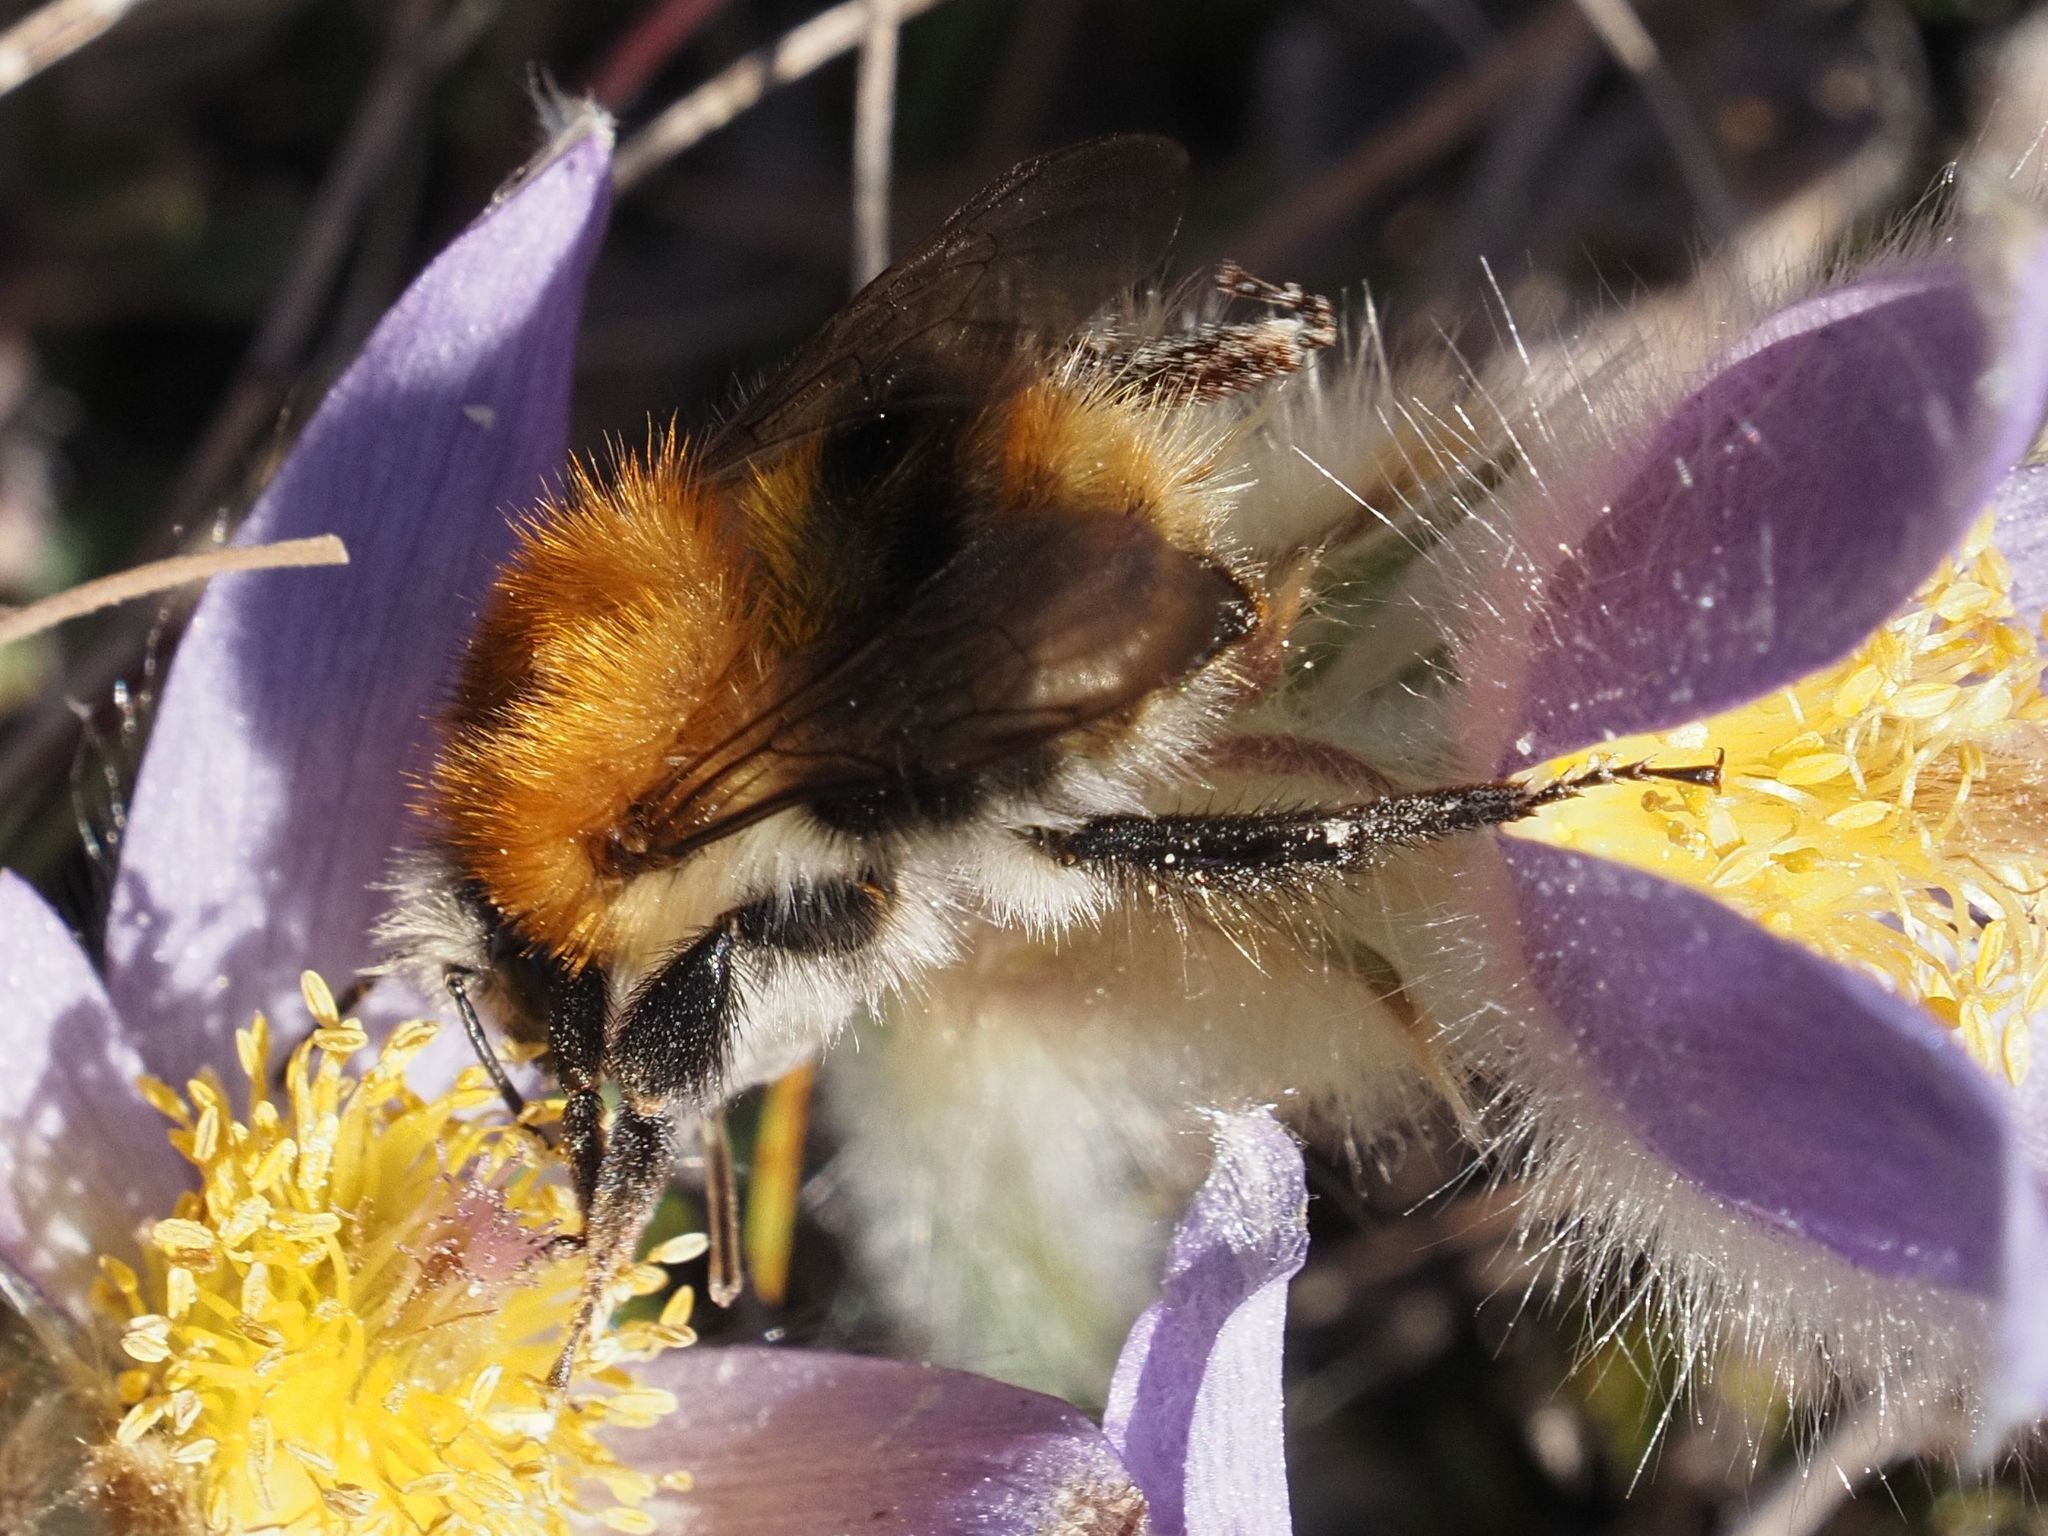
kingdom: Animalia
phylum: Arthropoda
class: Insecta
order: Hymenoptera
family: Apidae
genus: Bombus
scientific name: Bombus pascuorum
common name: Common carder bee
